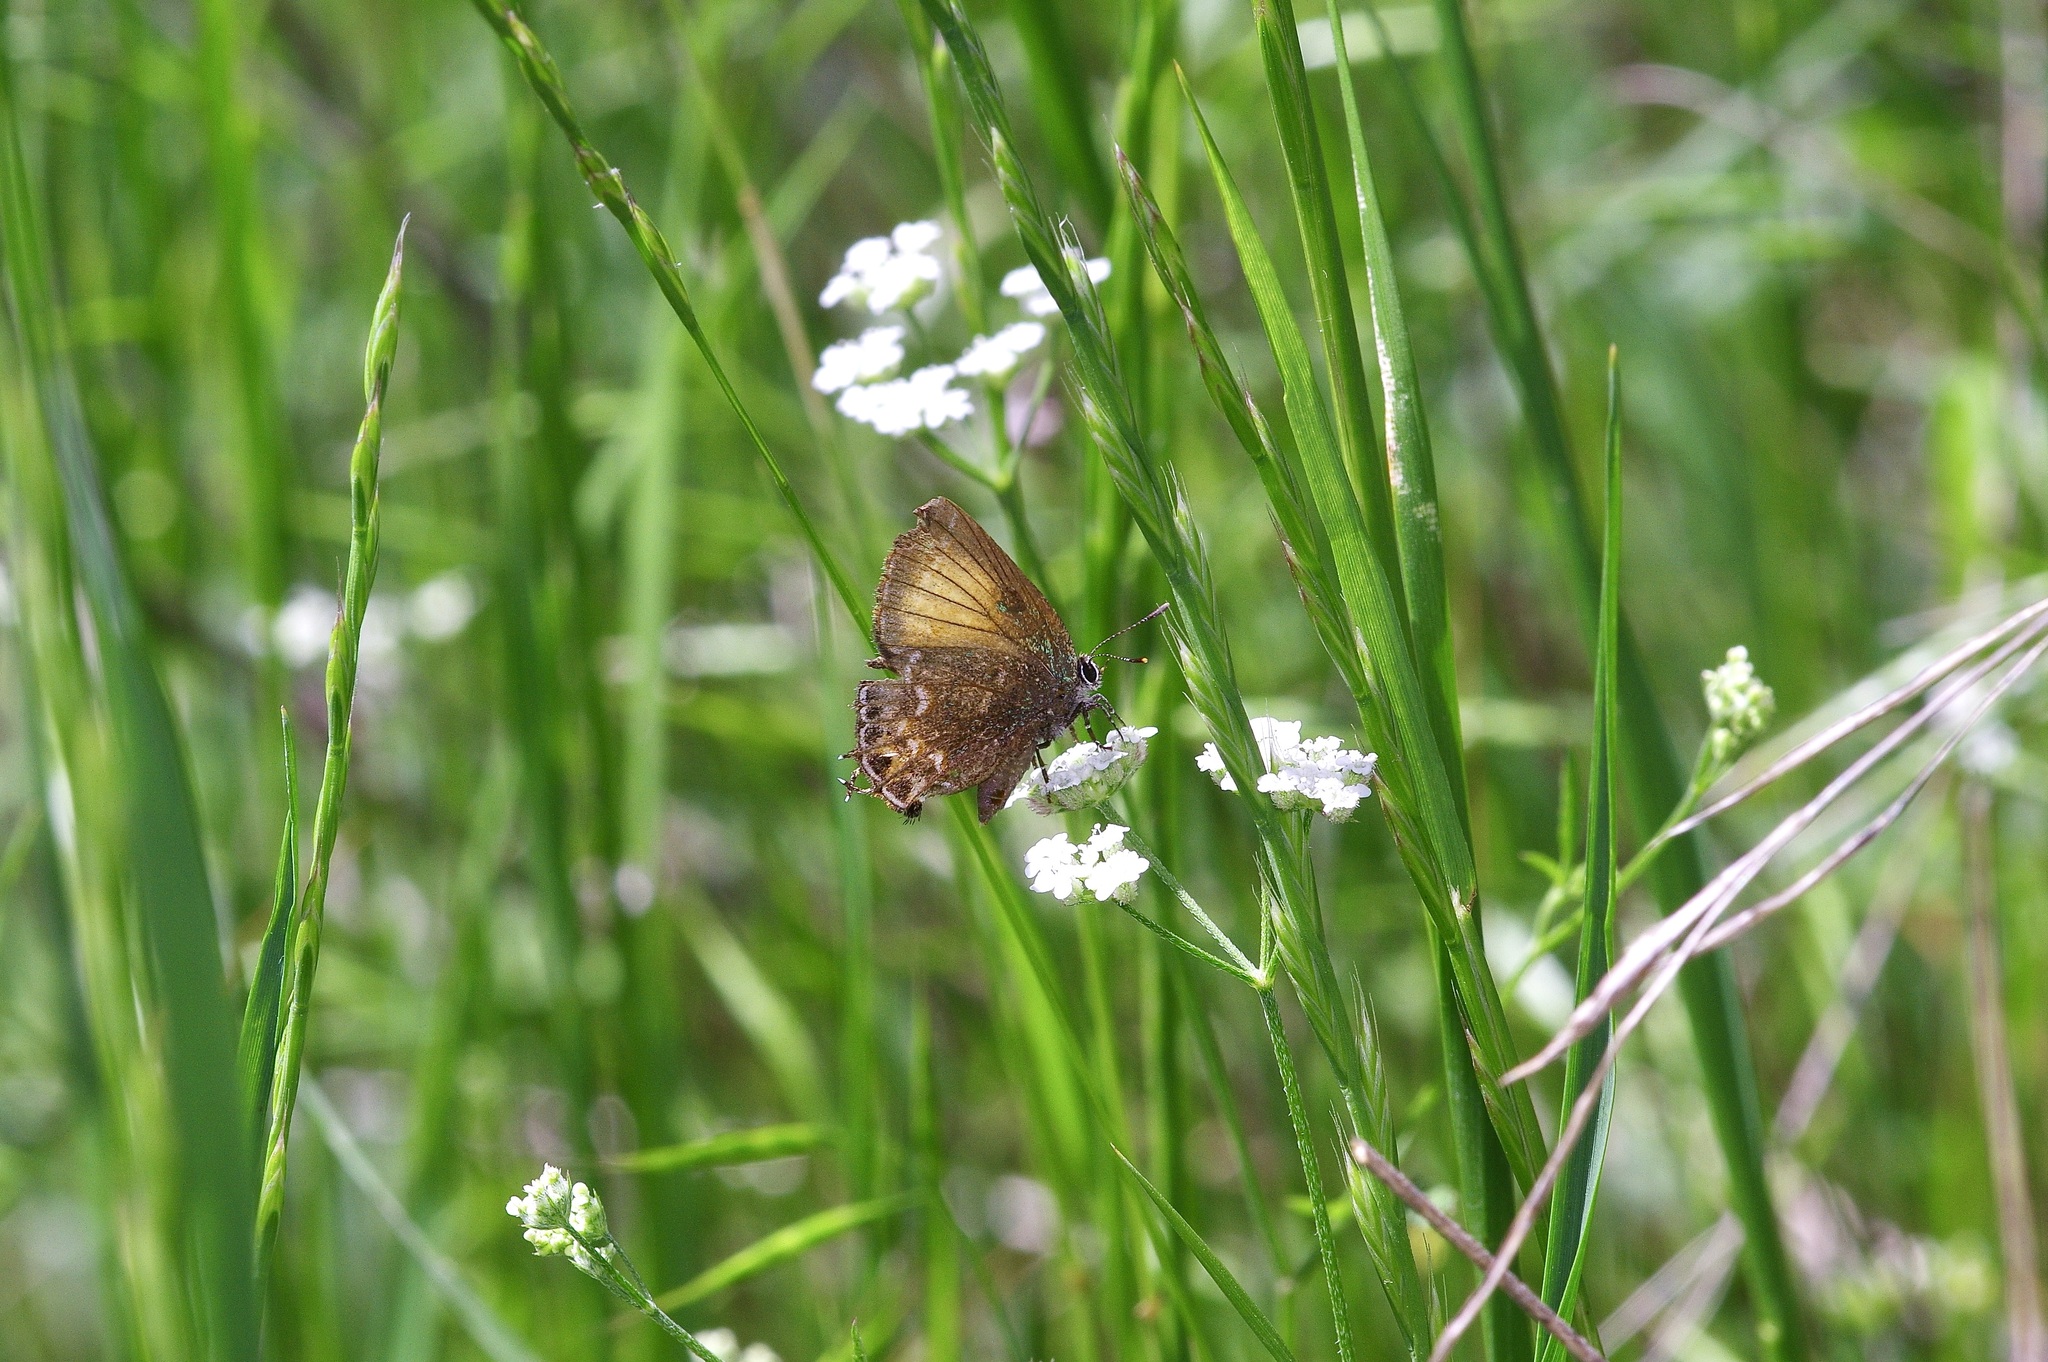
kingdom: Animalia
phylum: Arthropoda
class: Insecta
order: Lepidoptera
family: Lycaenidae
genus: Mitoura
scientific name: Mitoura gryneus
